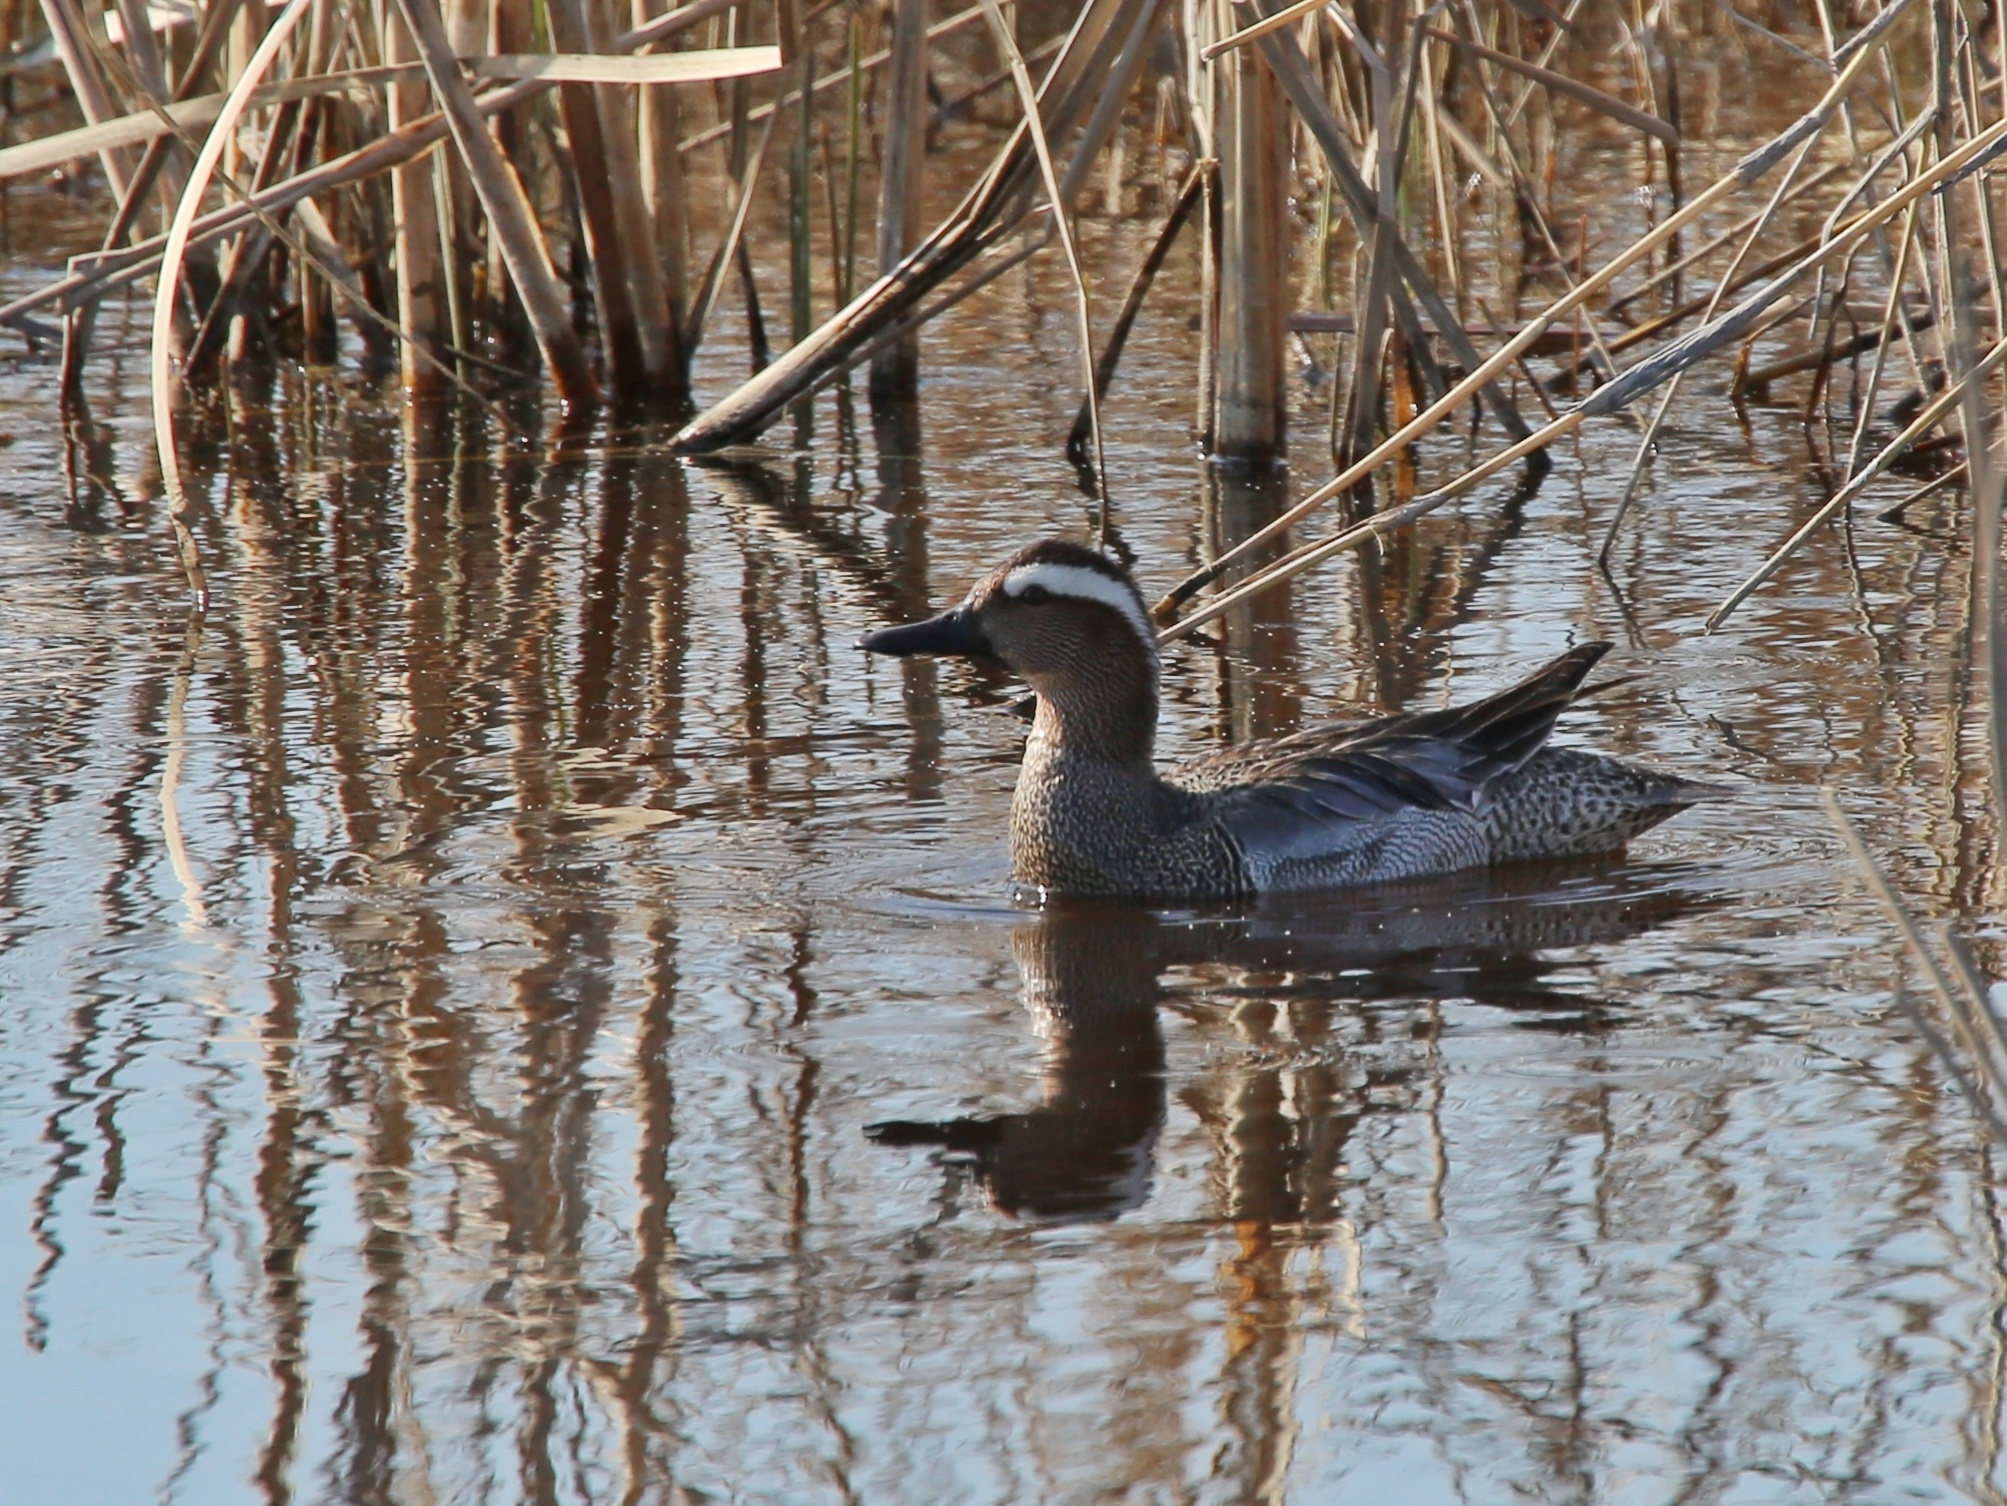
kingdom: Animalia
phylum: Chordata
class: Aves
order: Anseriformes
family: Anatidae
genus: Spatula
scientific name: Spatula querquedula
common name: Garganey
